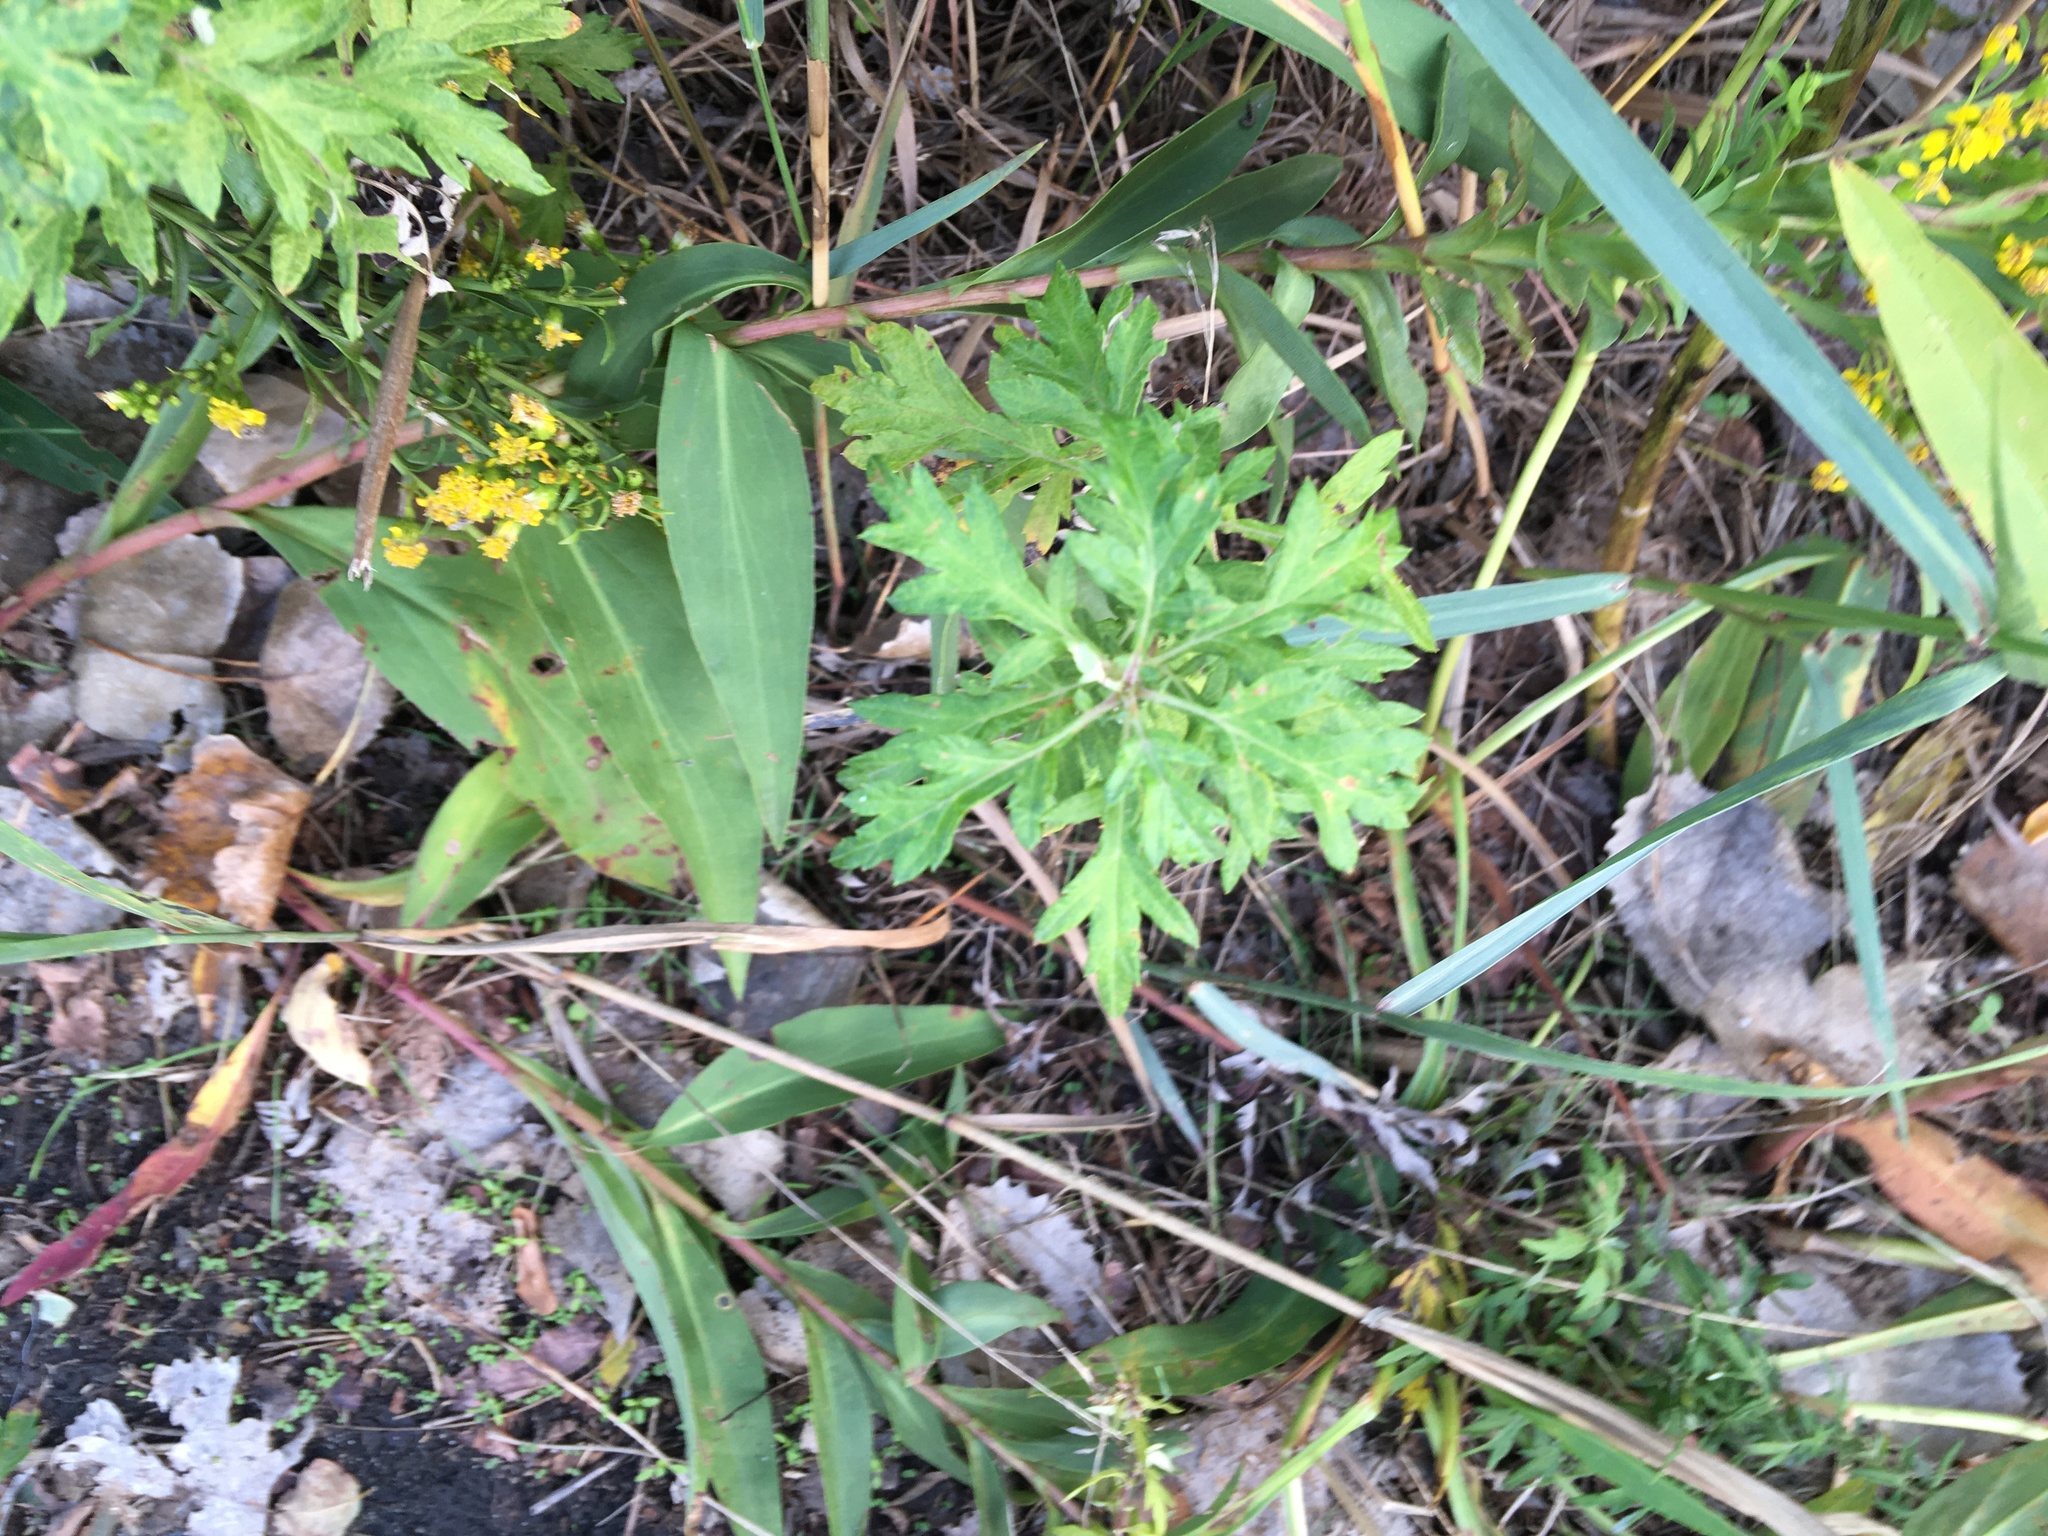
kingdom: Plantae
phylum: Tracheophyta
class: Magnoliopsida
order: Asterales
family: Asteraceae
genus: Artemisia
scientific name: Artemisia vulgaris
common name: Mugwort
